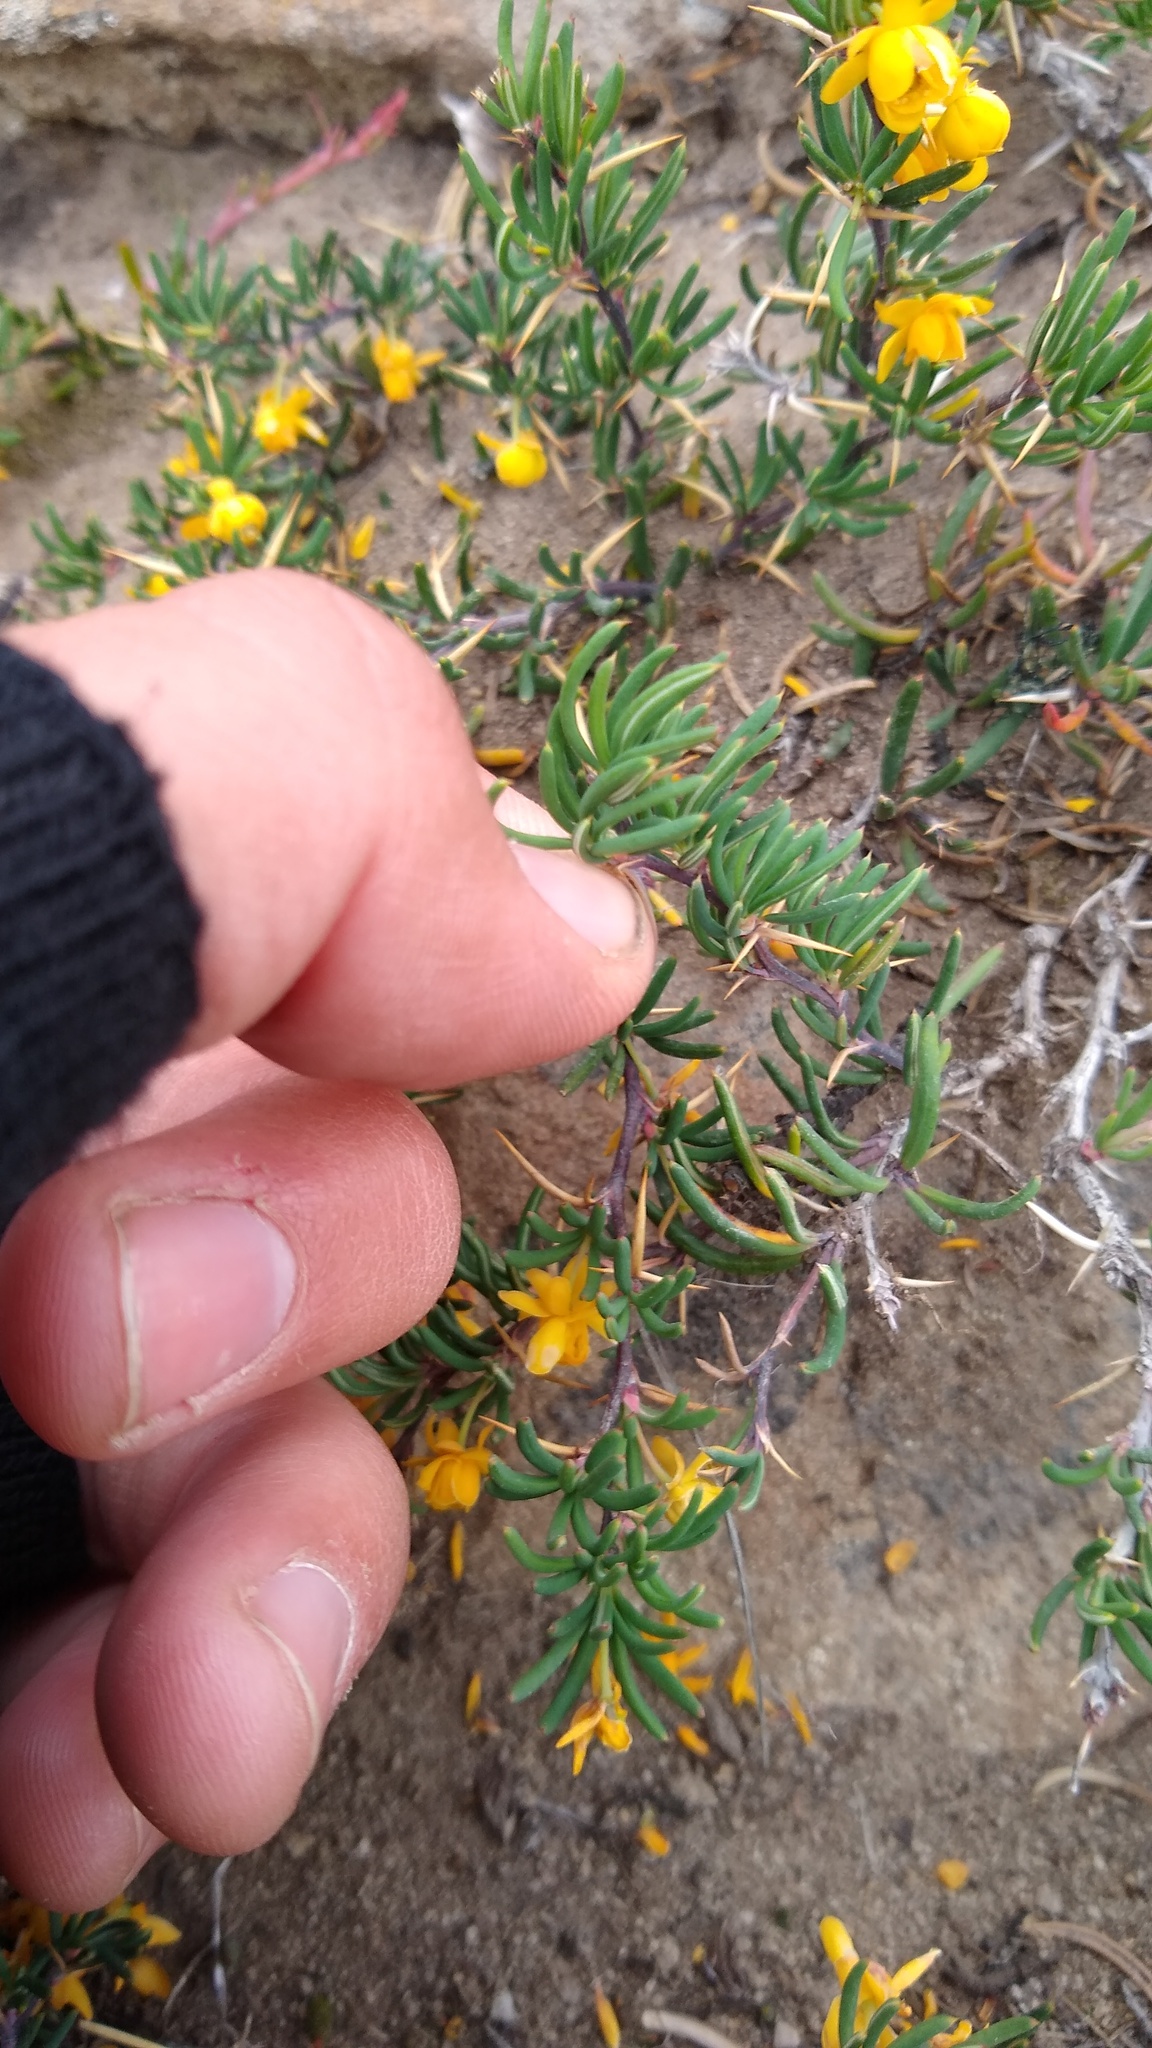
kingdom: Plantae
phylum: Tracheophyta
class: Magnoliopsida
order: Ranunculales
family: Berberidaceae
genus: Berberis
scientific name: Berberis empetrifolia
